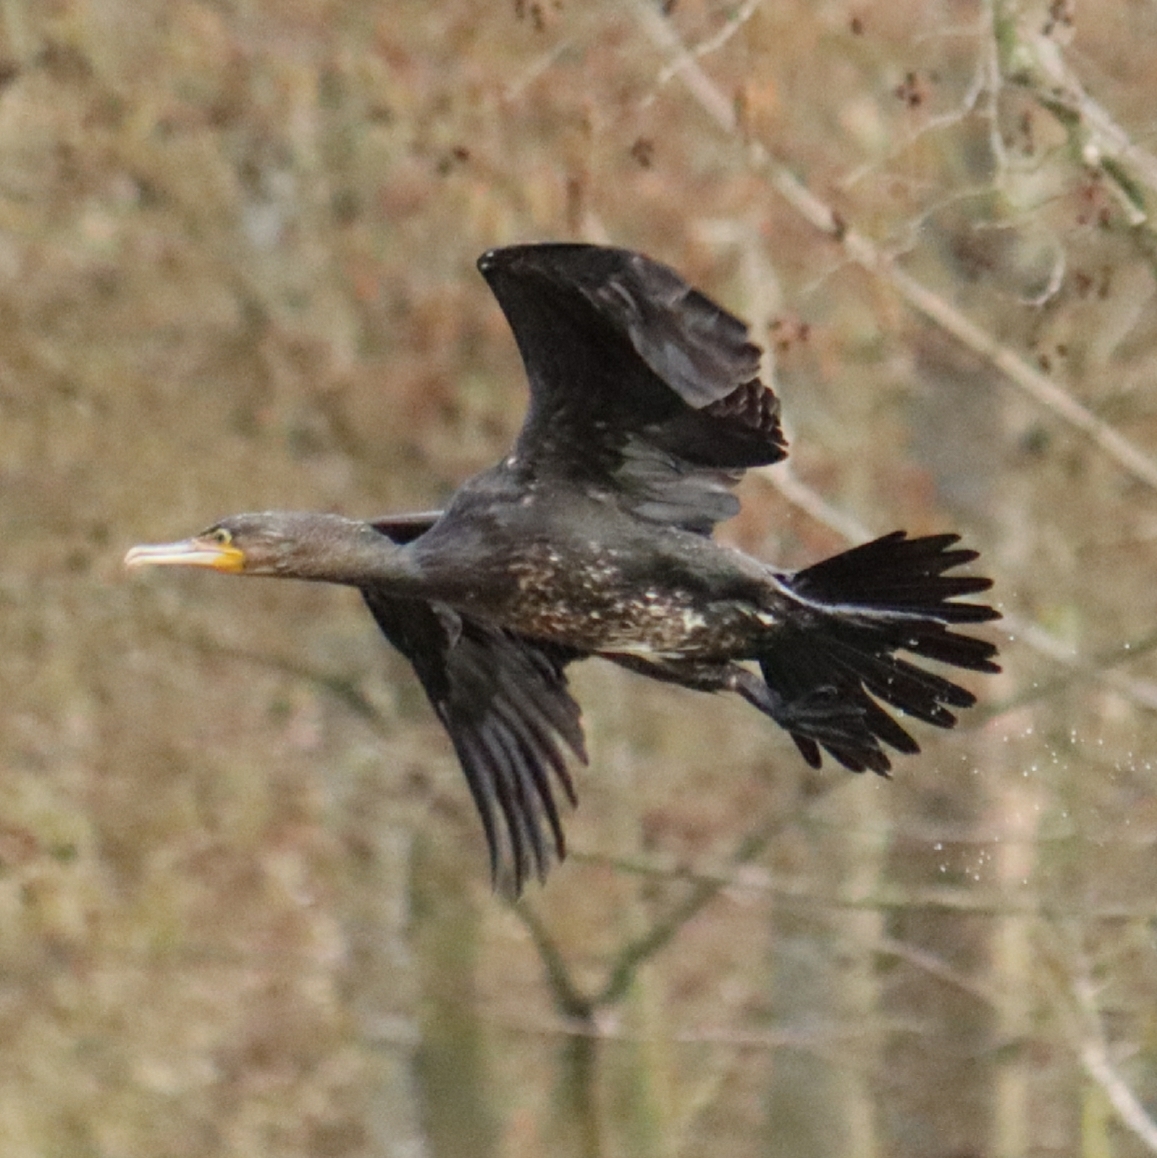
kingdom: Animalia
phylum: Chordata
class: Aves
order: Suliformes
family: Phalacrocoracidae
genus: Phalacrocorax
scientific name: Phalacrocorax carbo
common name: Great cormorant
